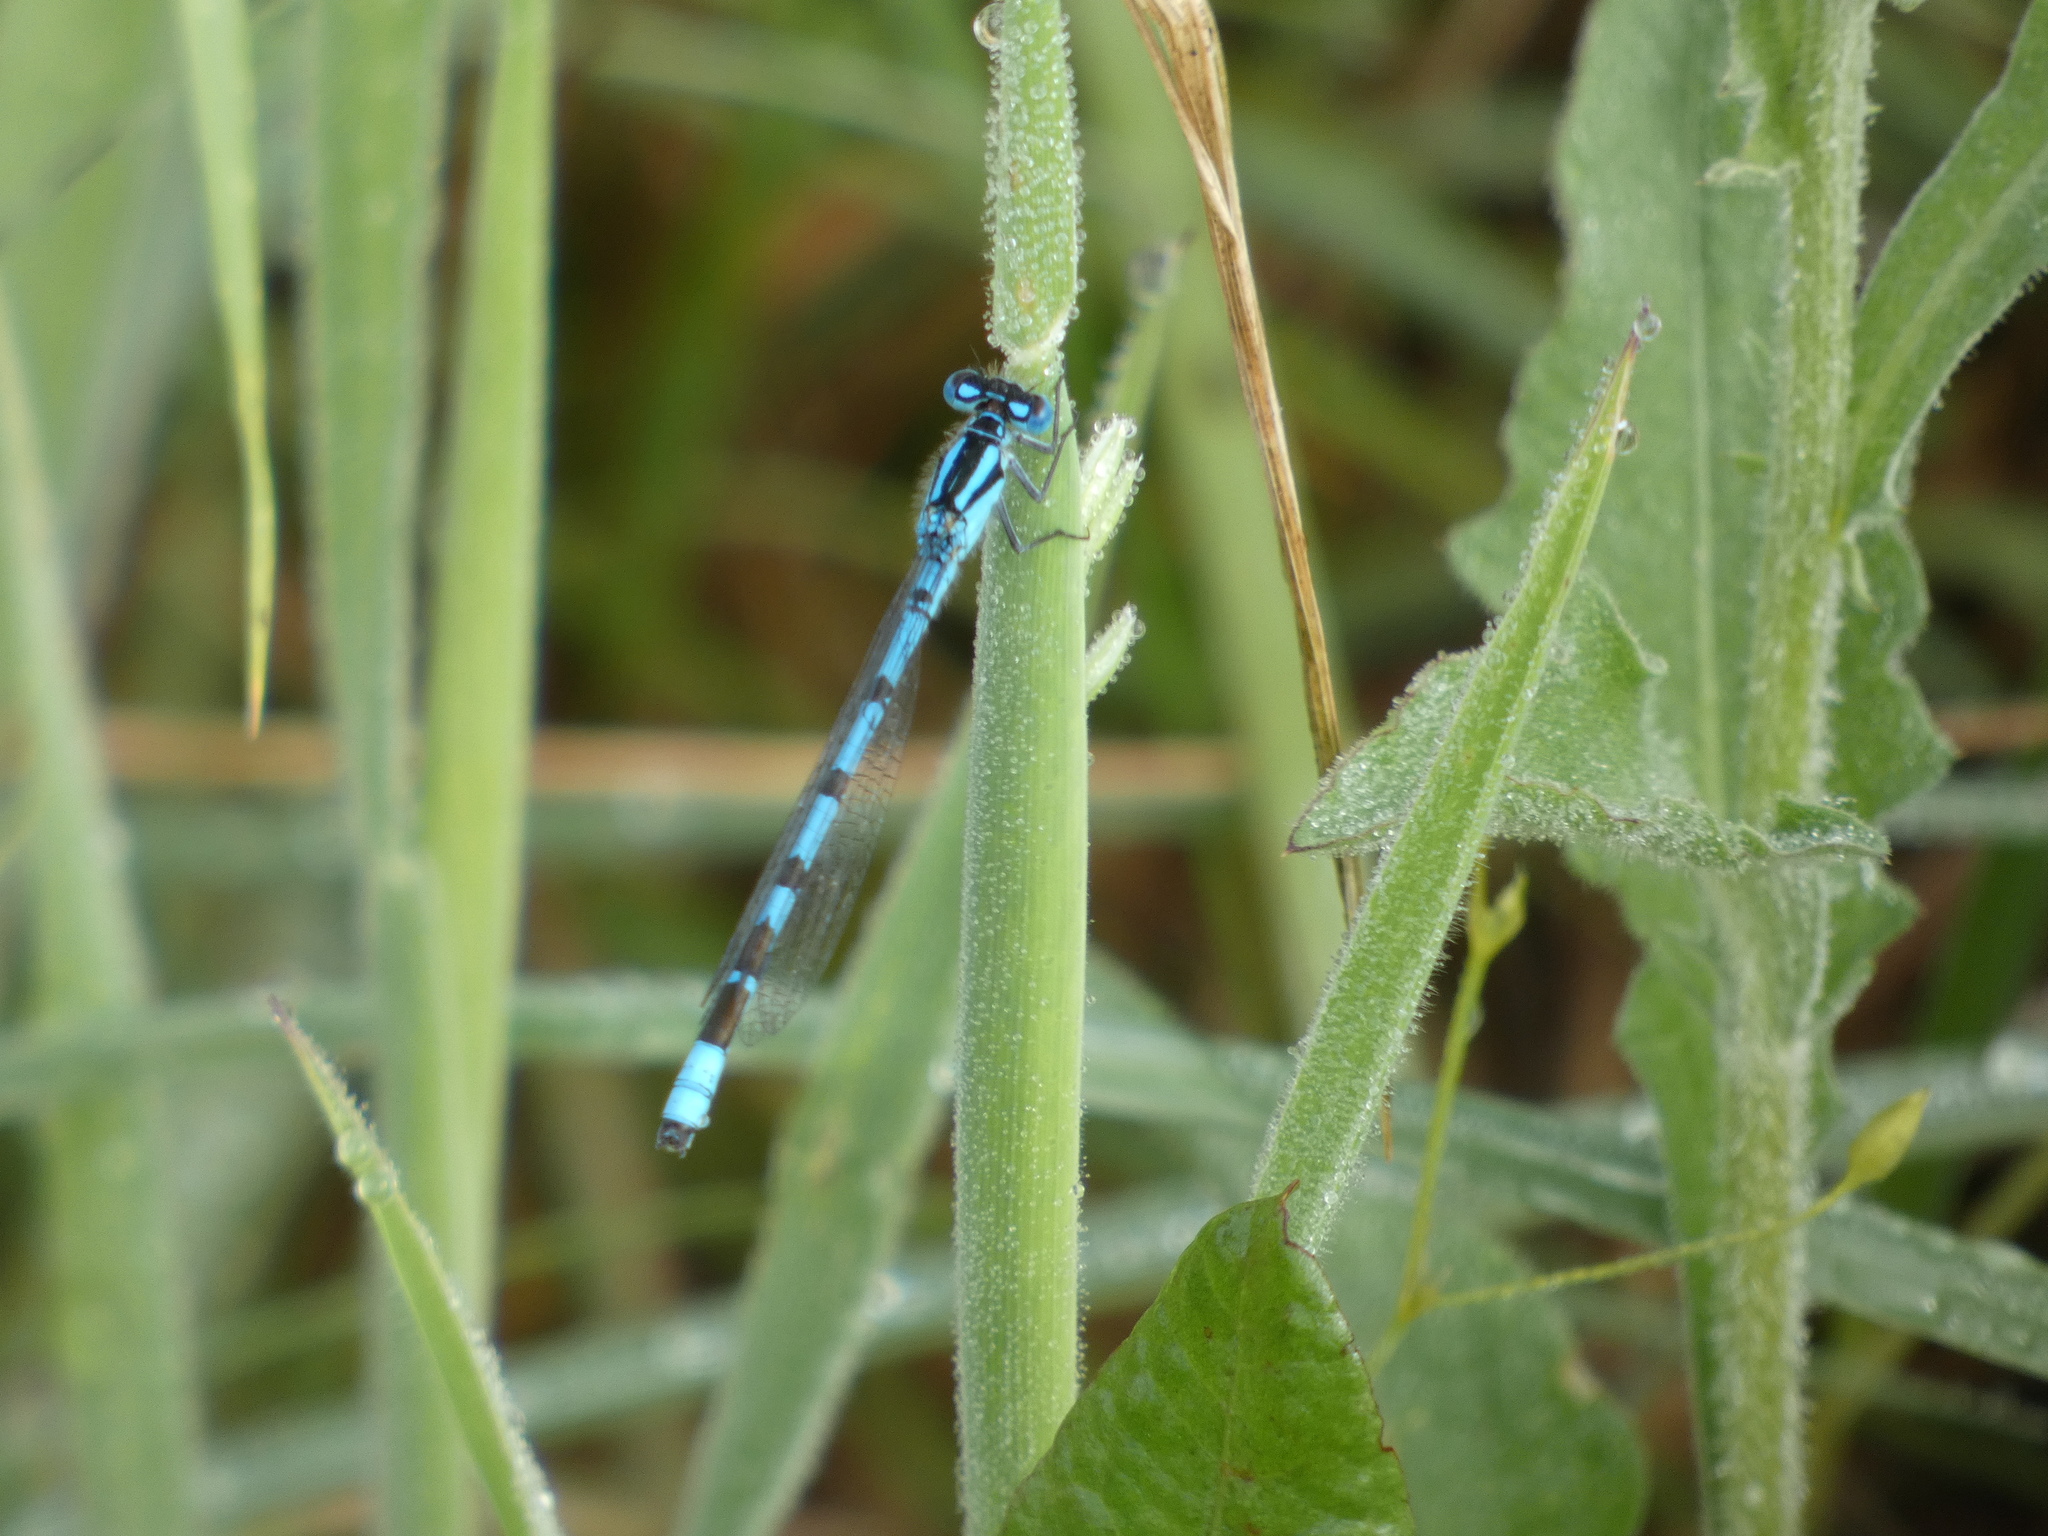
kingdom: Animalia
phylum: Arthropoda
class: Insecta
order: Odonata
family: Coenagrionidae
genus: Enallagma
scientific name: Enallagma cyathigerum
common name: Common blue damselfly
